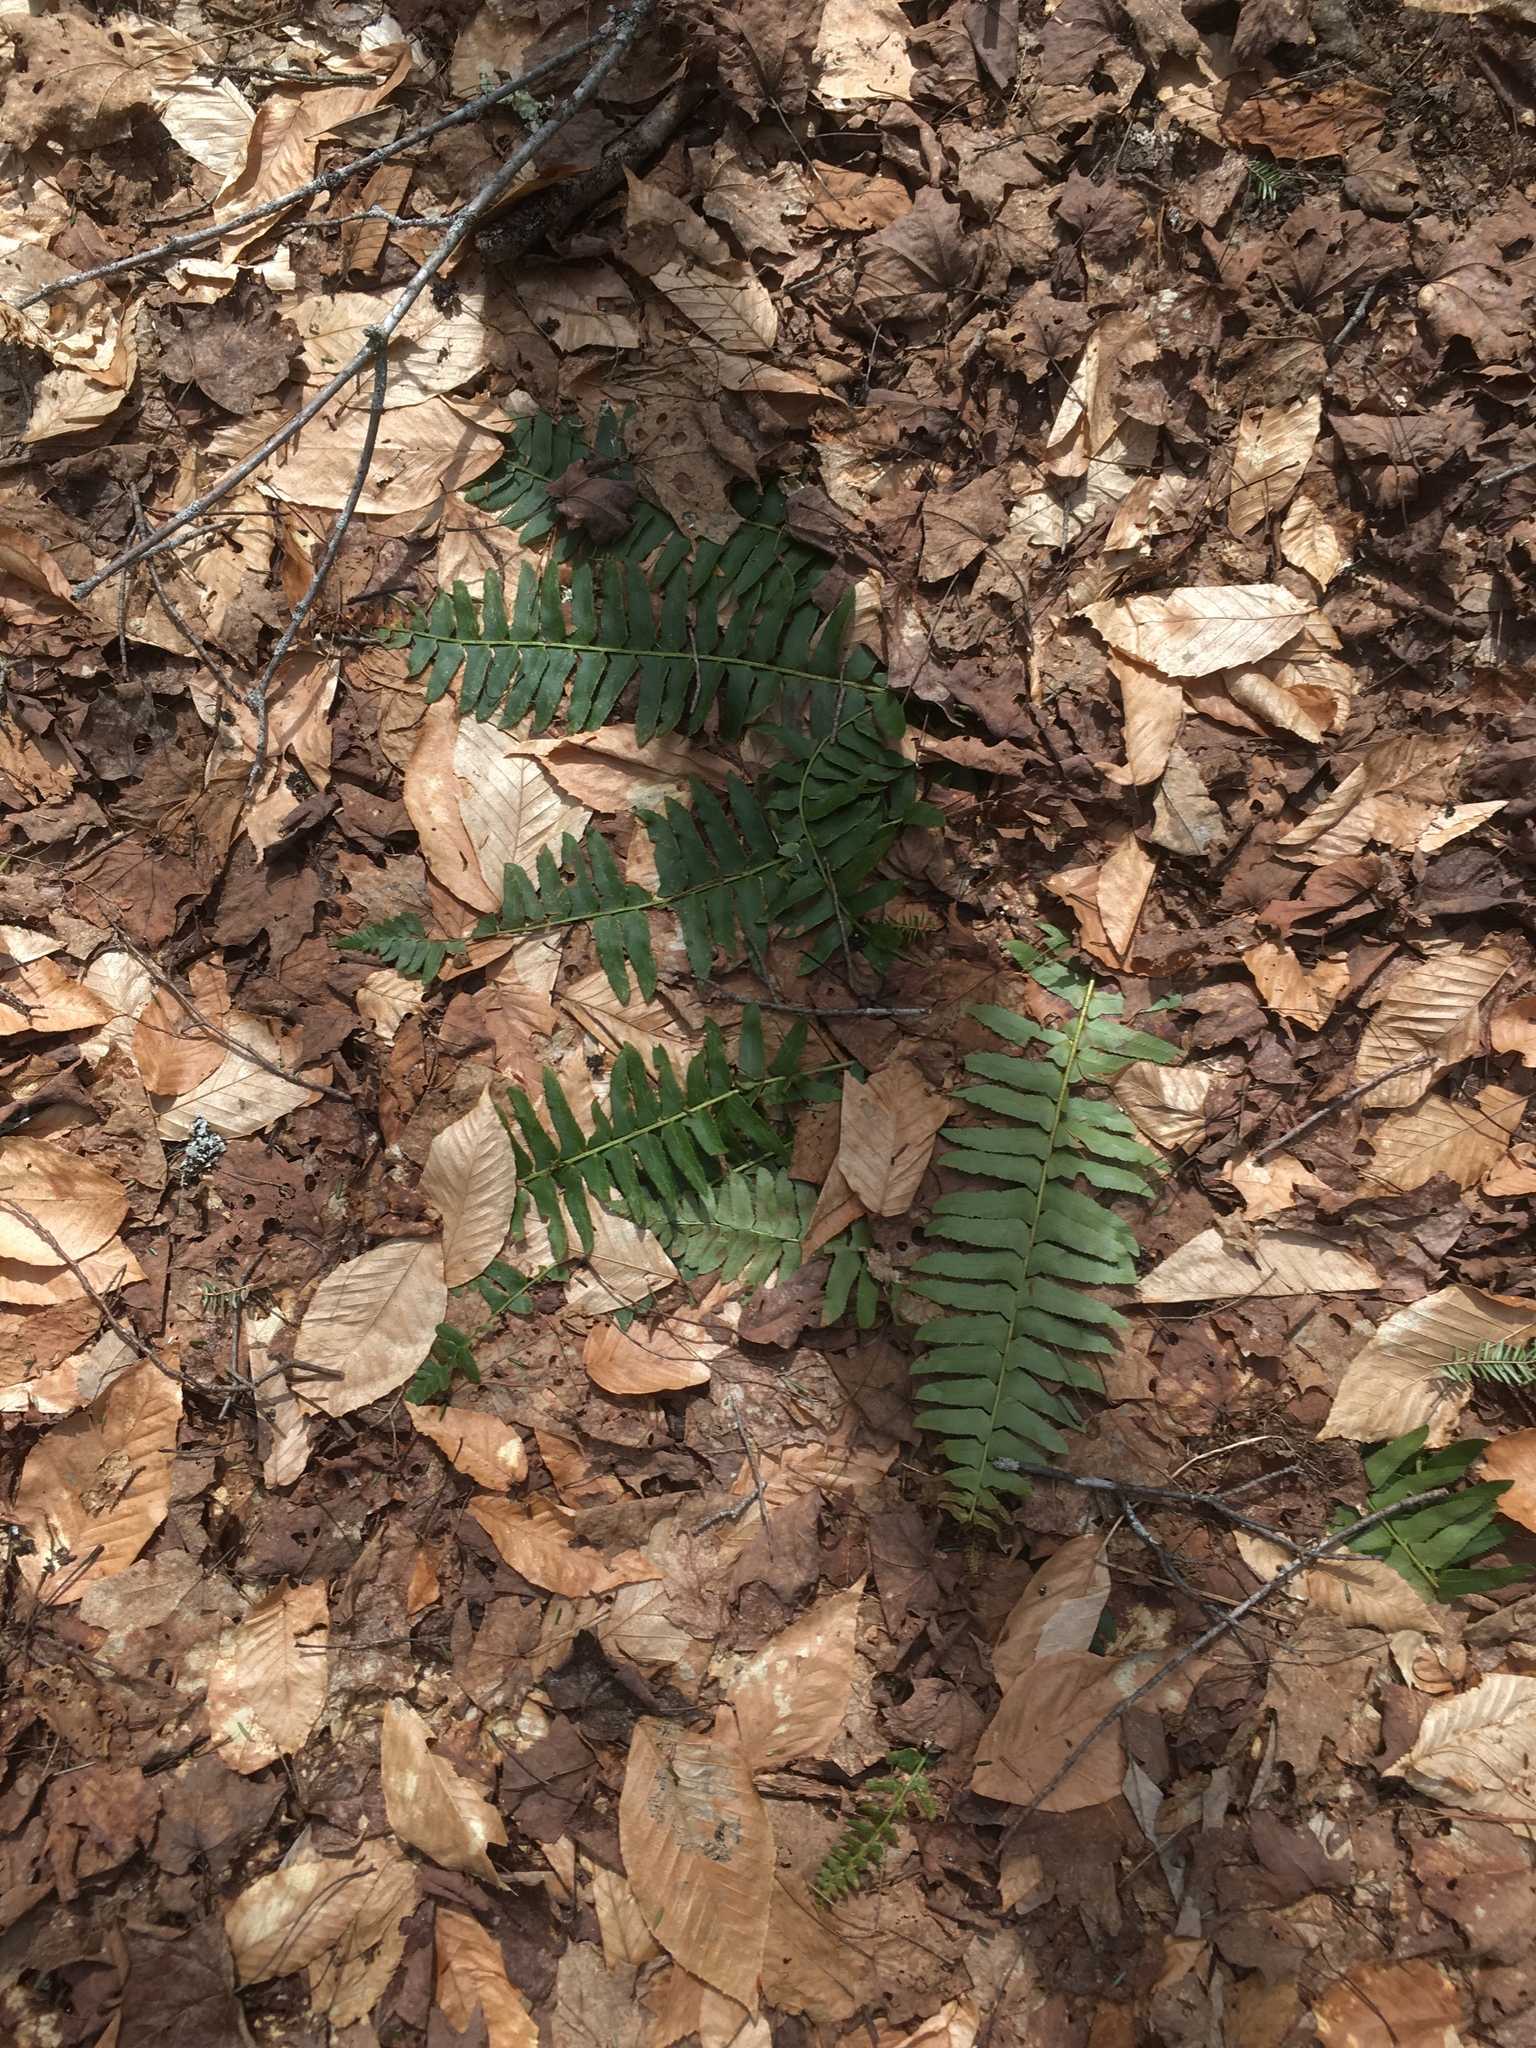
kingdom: Plantae
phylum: Tracheophyta
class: Polypodiopsida
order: Polypodiales
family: Dryopteridaceae
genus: Polystichum
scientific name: Polystichum acrostichoides
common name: Christmas fern
